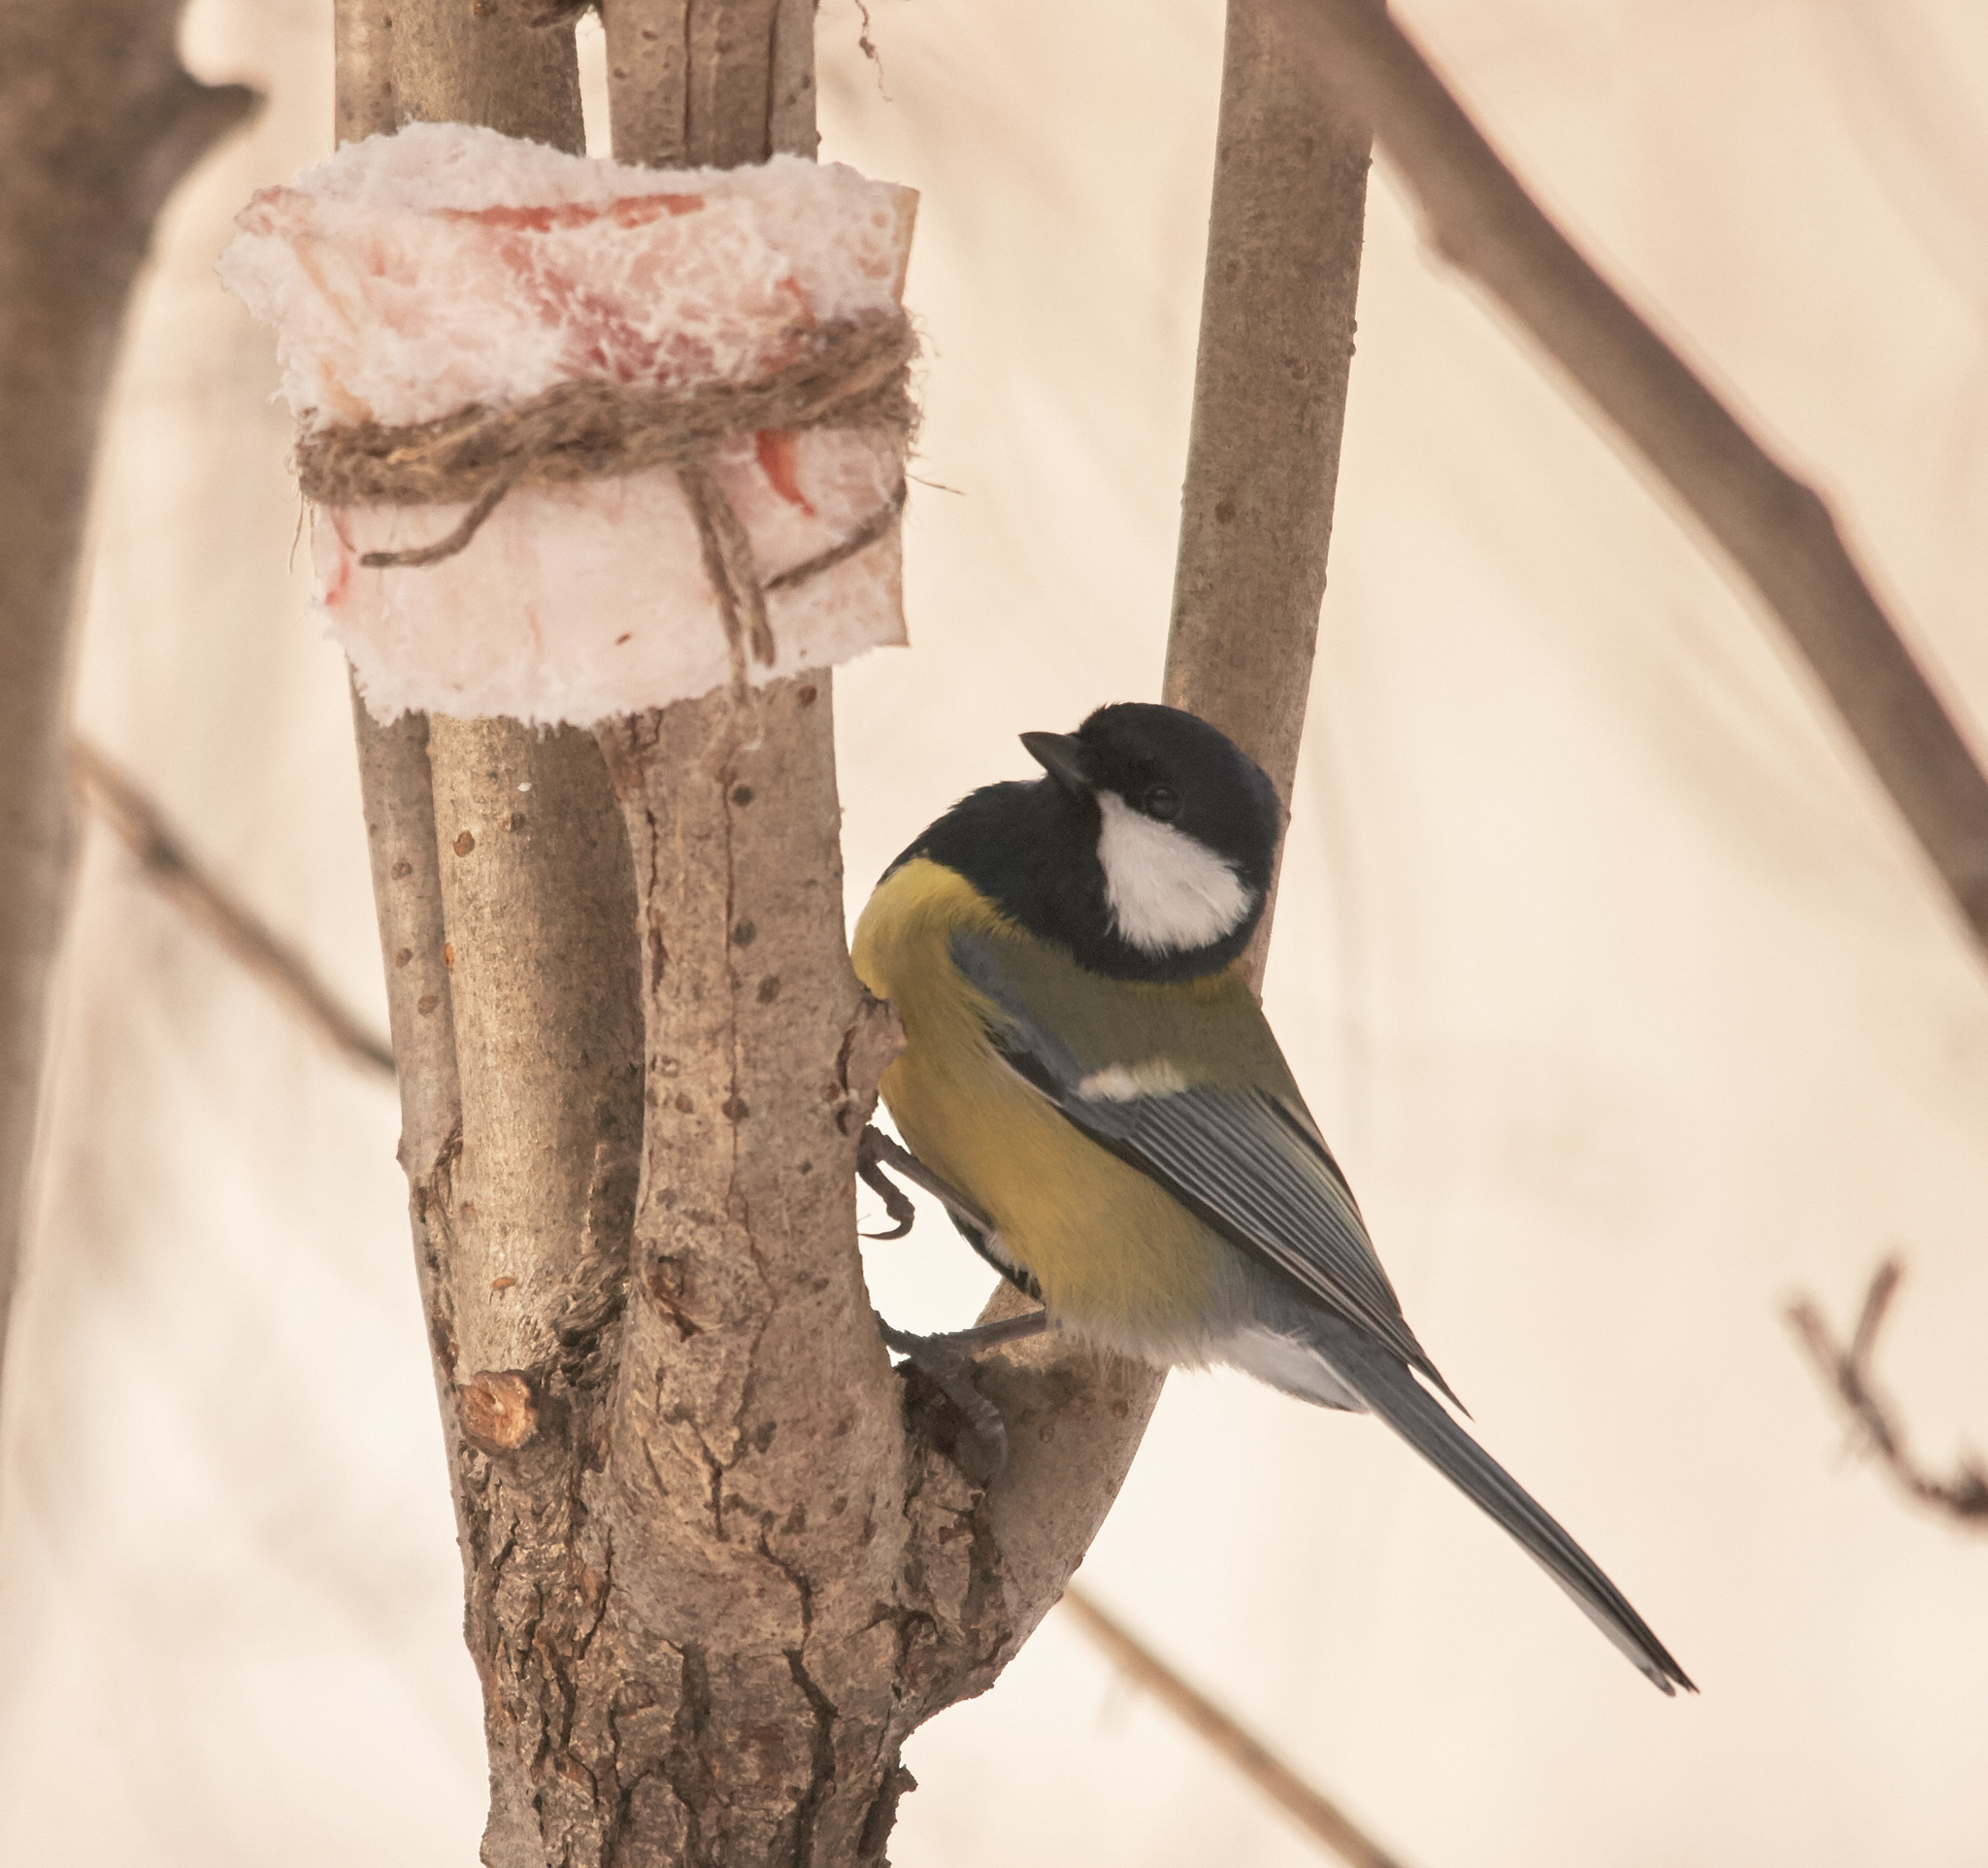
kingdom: Animalia
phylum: Chordata
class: Aves
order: Passeriformes
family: Paridae
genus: Parus
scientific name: Parus major
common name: Great tit
